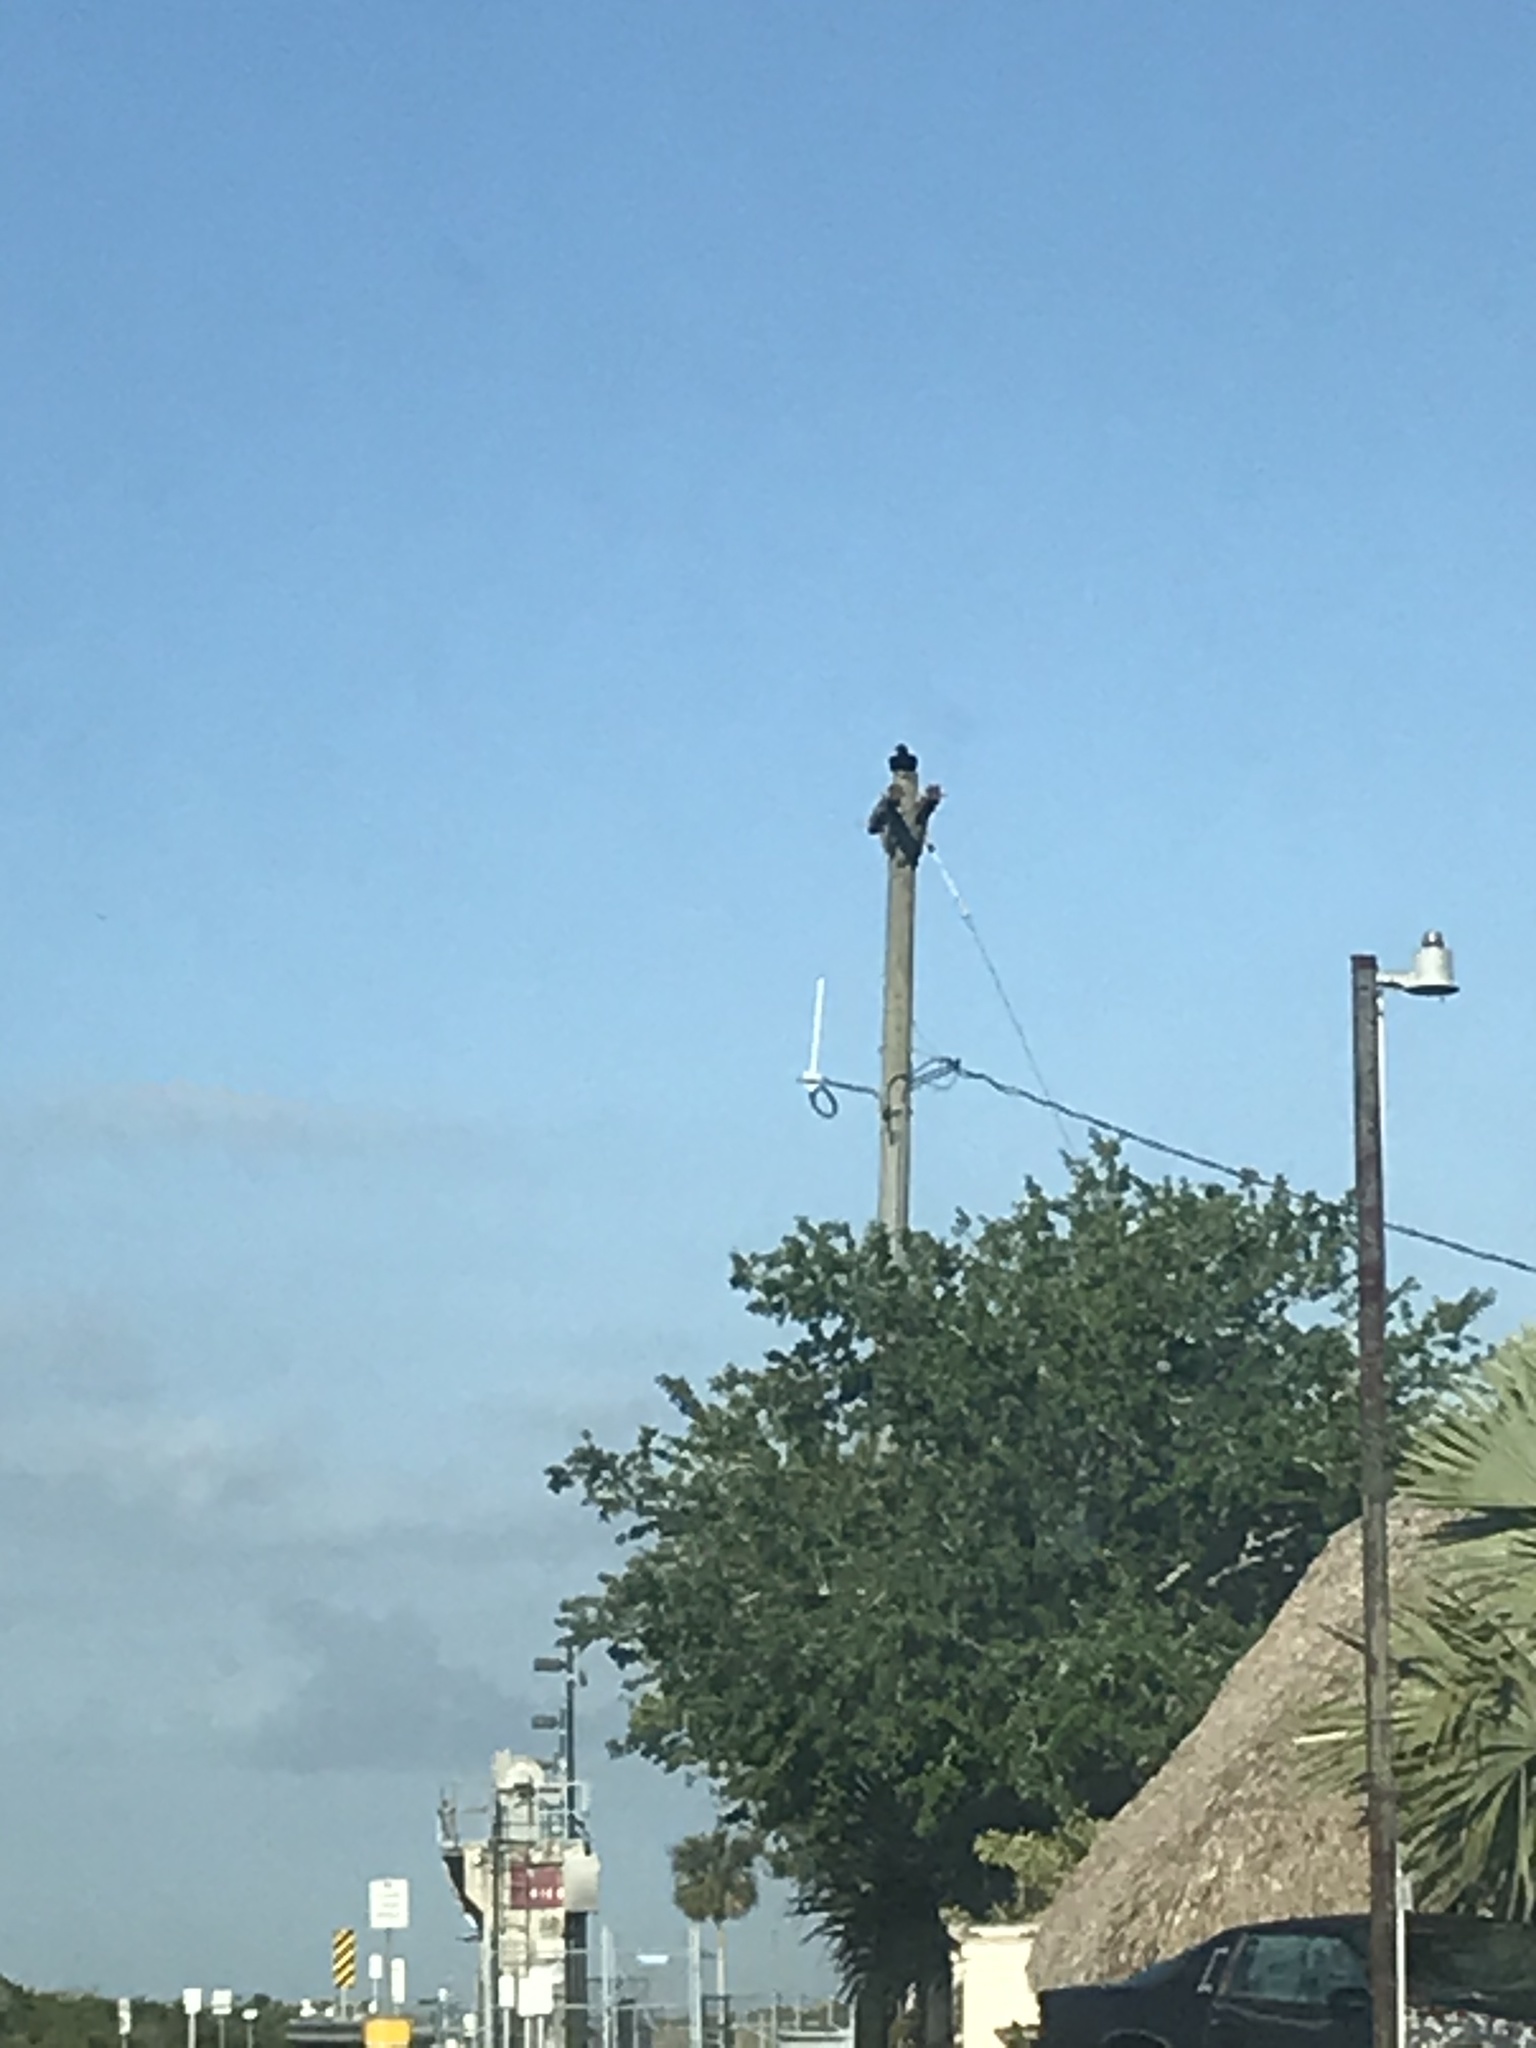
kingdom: Animalia
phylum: Chordata
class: Aves
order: Accipitriformes
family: Cathartidae
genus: Coragyps
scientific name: Coragyps atratus
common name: Black vulture
